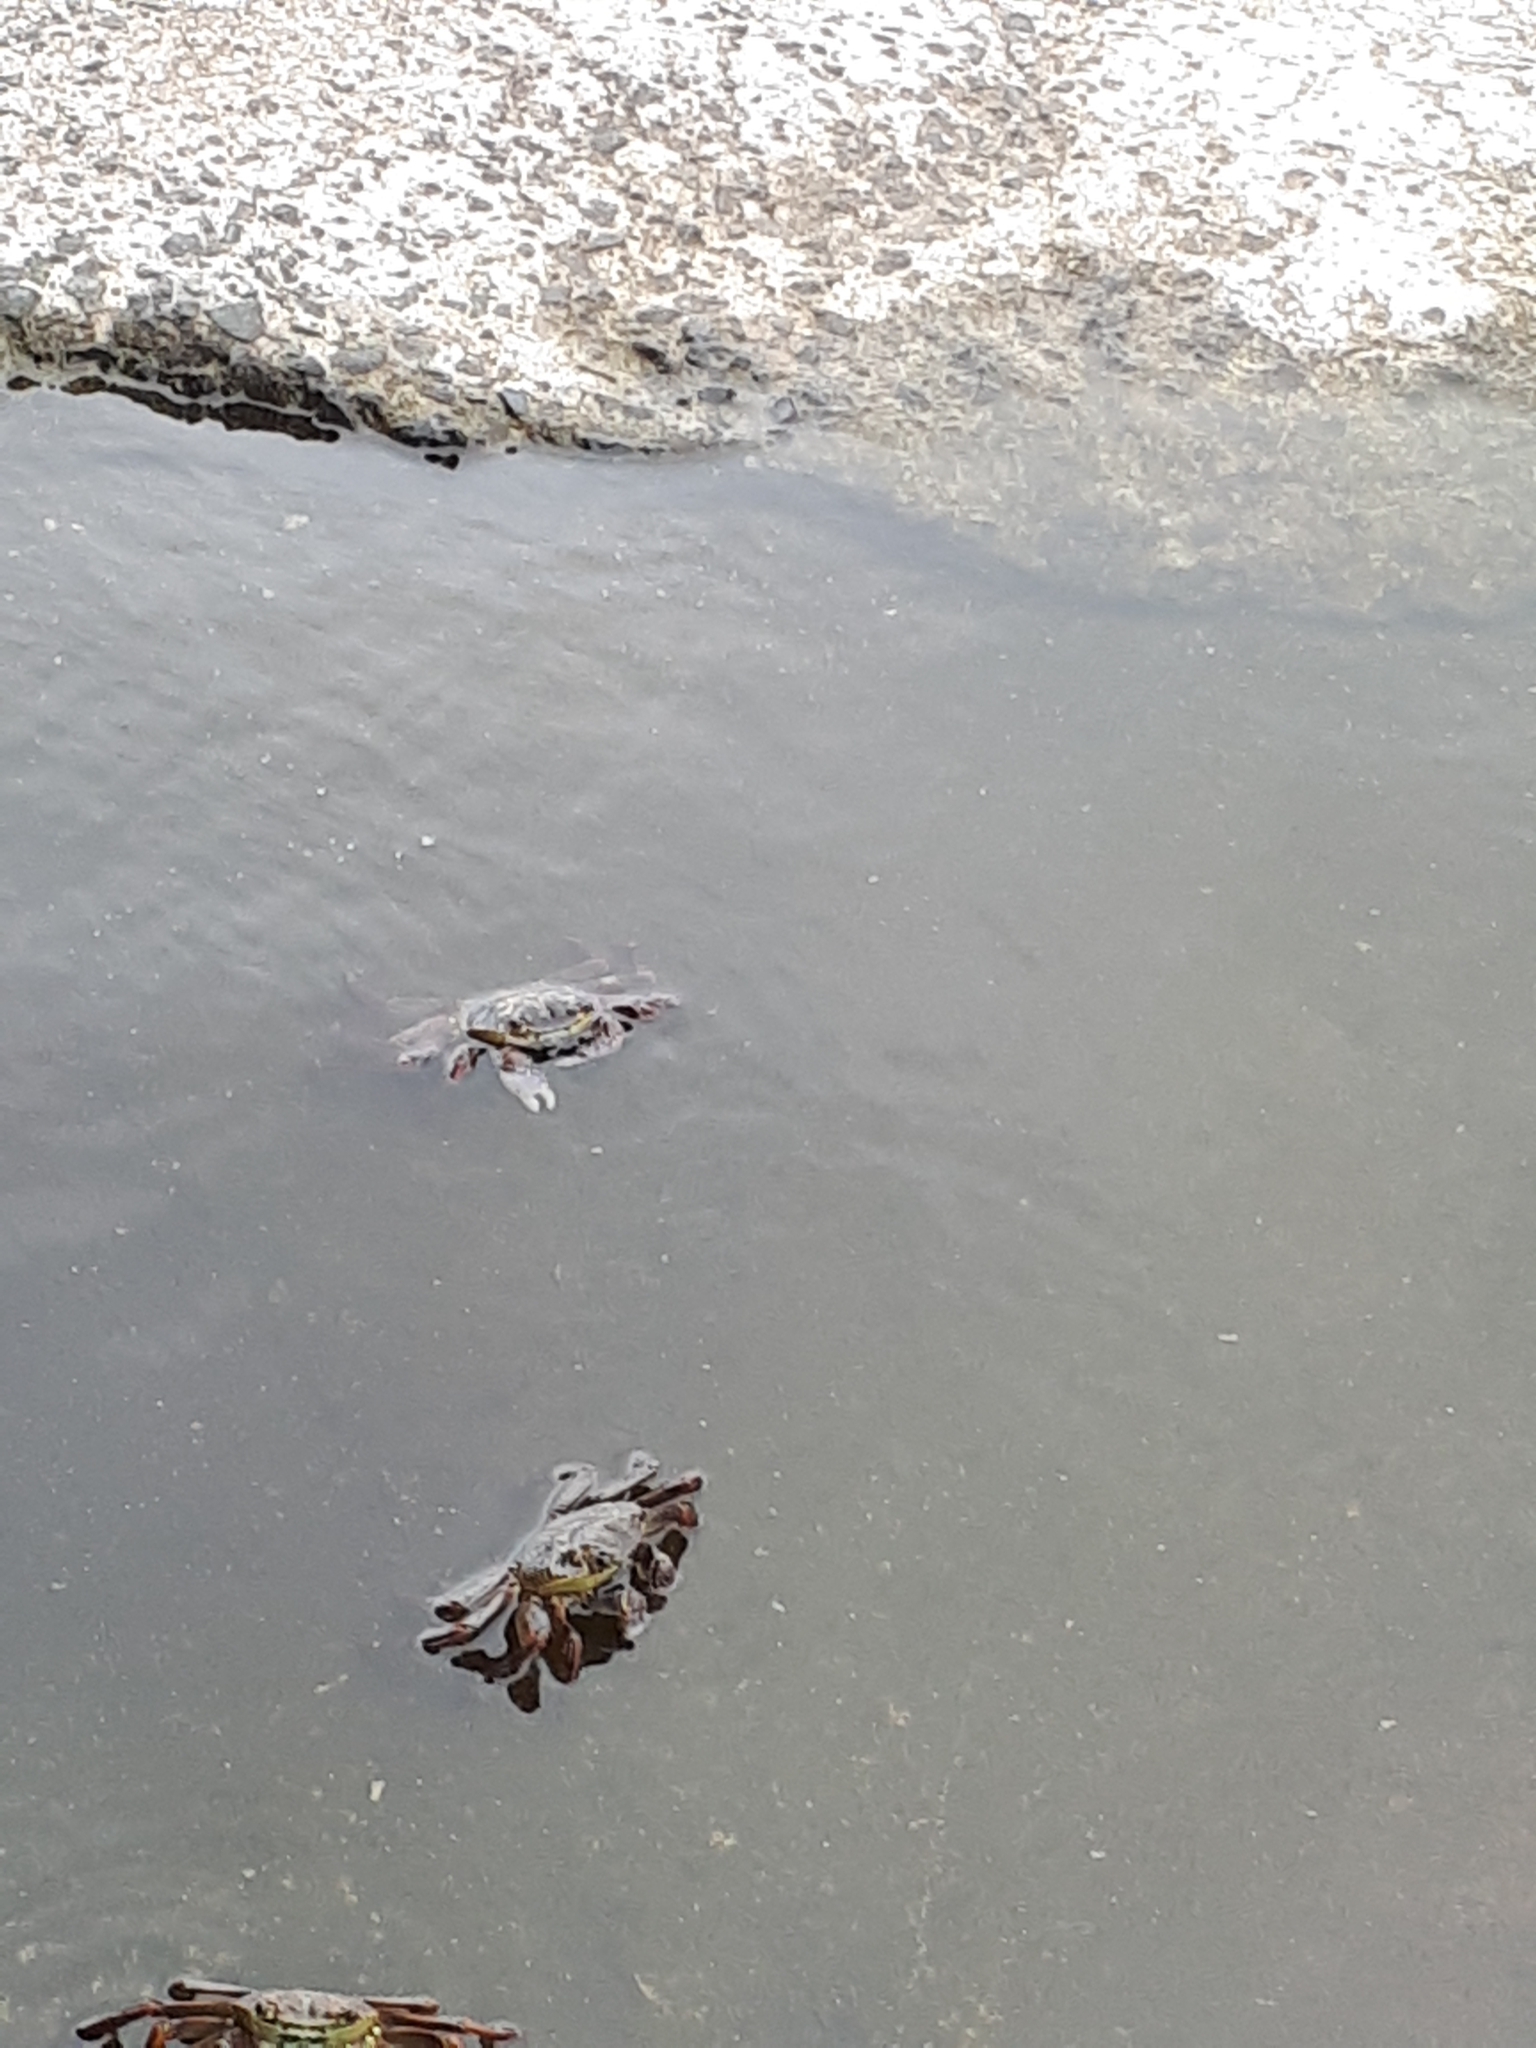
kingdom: Animalia
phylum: Arthropoda
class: Malacostraca
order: Decapoda
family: Grapsidae
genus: Leptograpsus
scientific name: Leptograpsus variegatus
